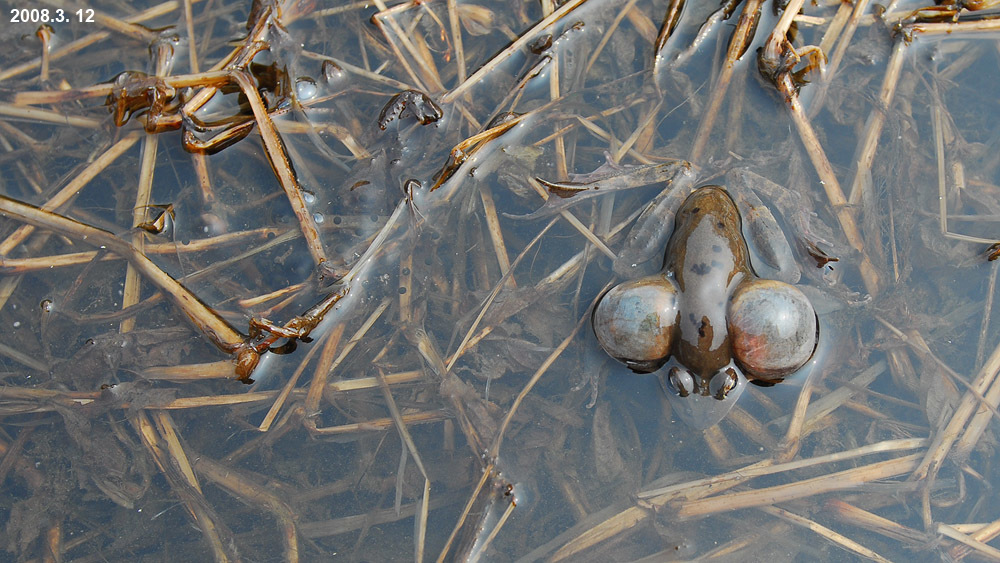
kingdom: Animalia
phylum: Chordata
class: Amphibia
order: Anura
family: Ranidae
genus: Rana
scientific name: Rana uenoi
